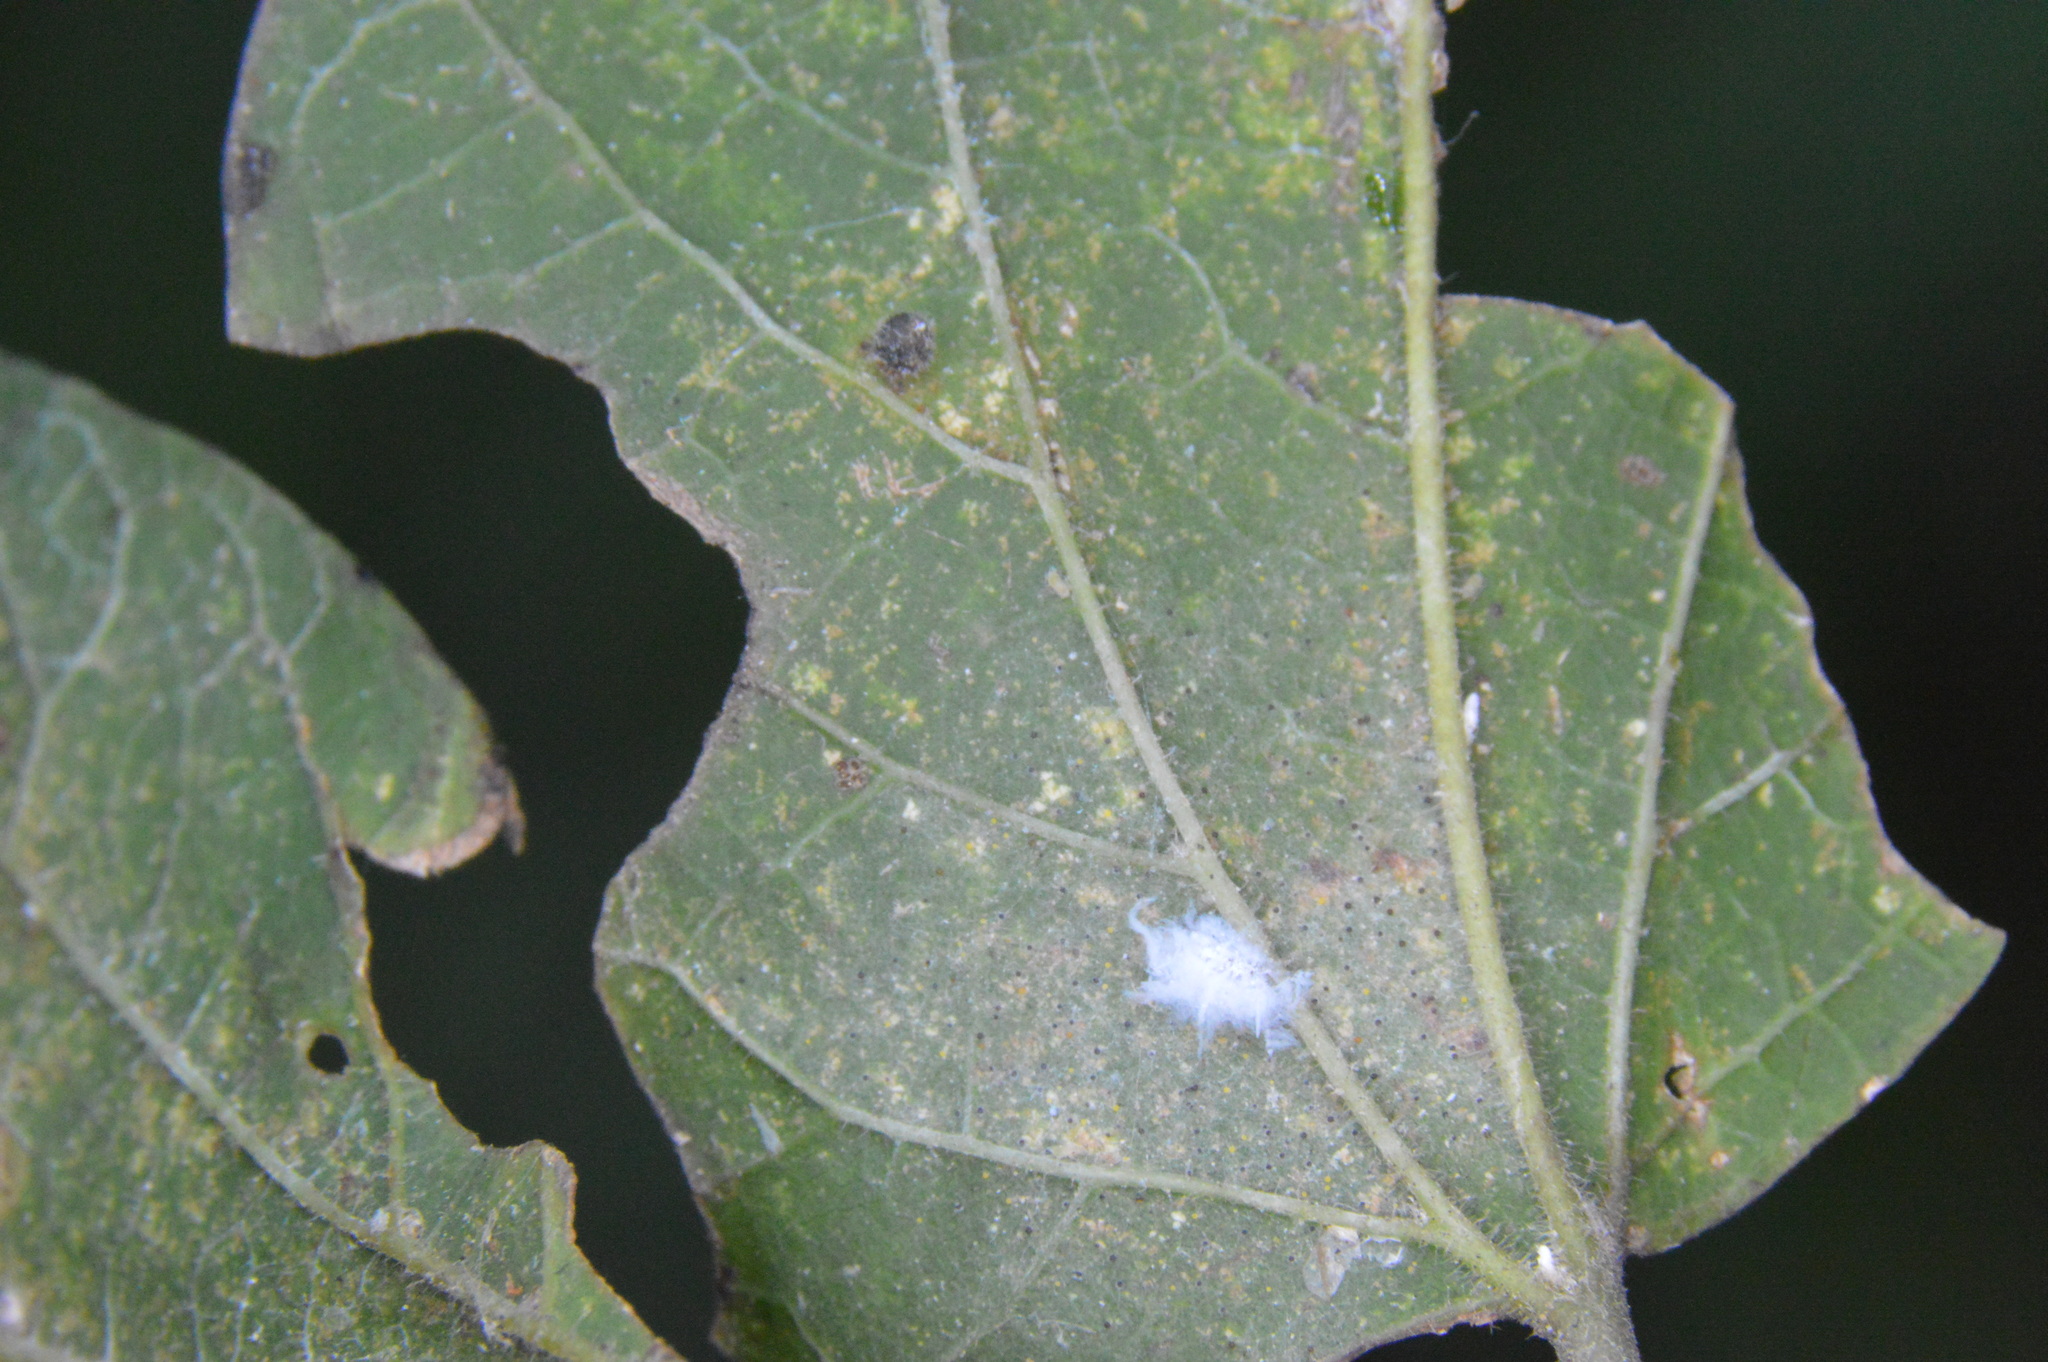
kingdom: Animalia
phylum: Arthropoda
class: Insecta
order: Hemiptera
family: Aphididae
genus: Shivaphis
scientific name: Shivaphis celti
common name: Asian wooly hackberry aphid
